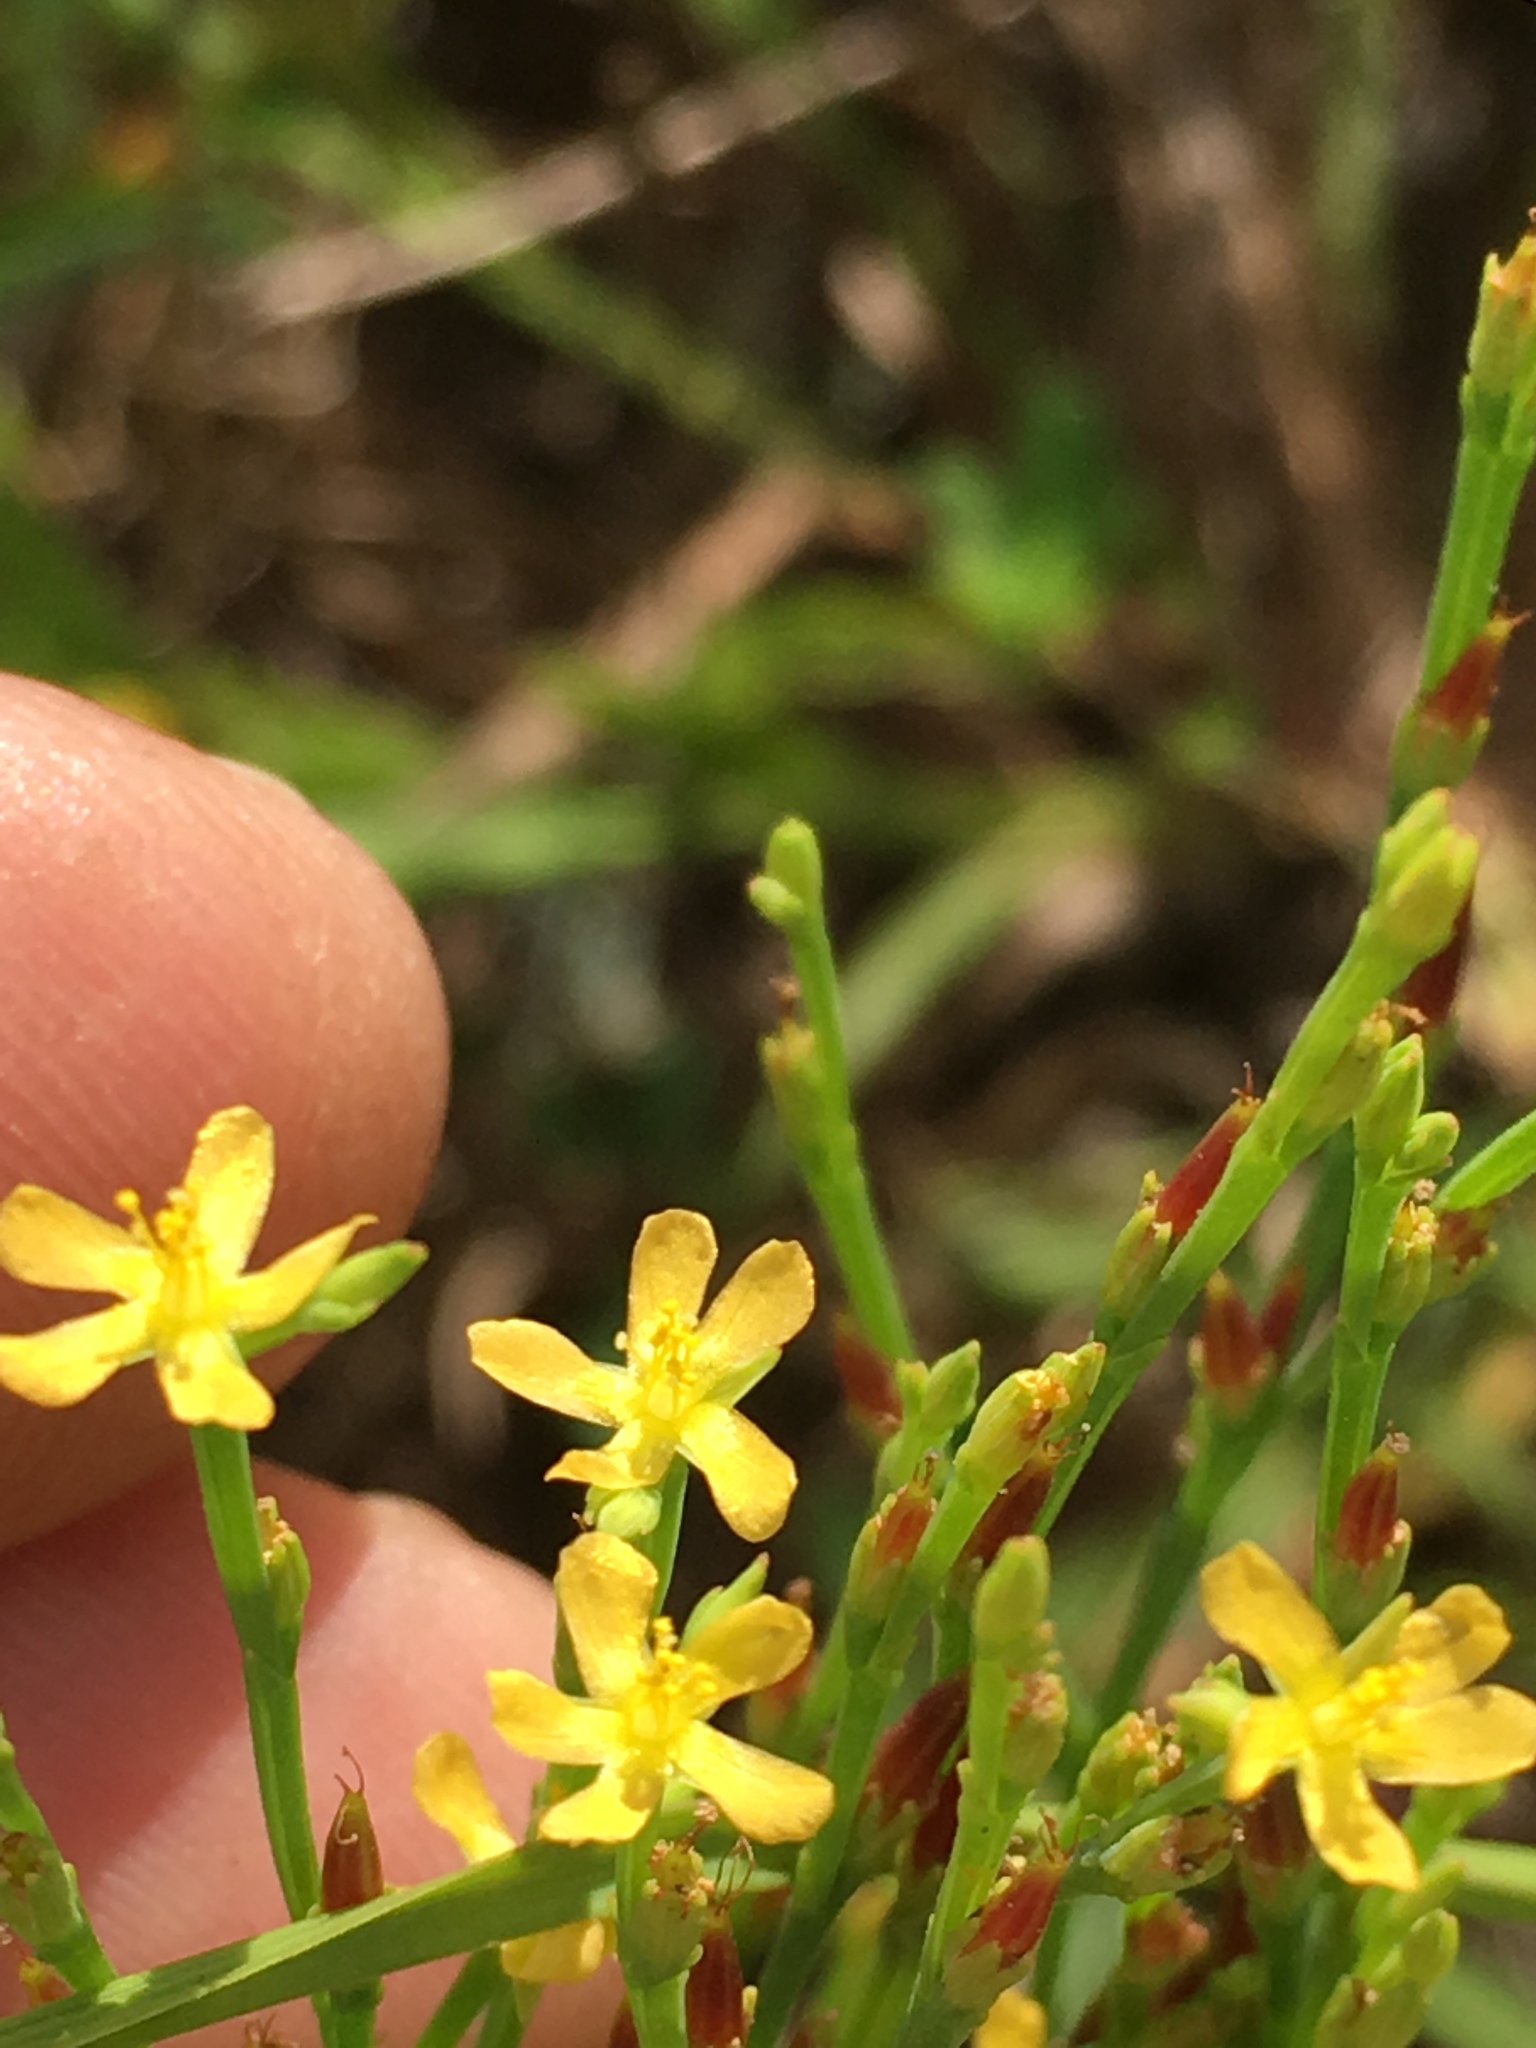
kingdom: Plantae
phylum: Tracheophyta
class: Magnoliopsida
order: Malpighiales
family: Hypericaceae
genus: Hypericum
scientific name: Hypericum gentianoides
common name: Gentian-leaved st. john's-wort
